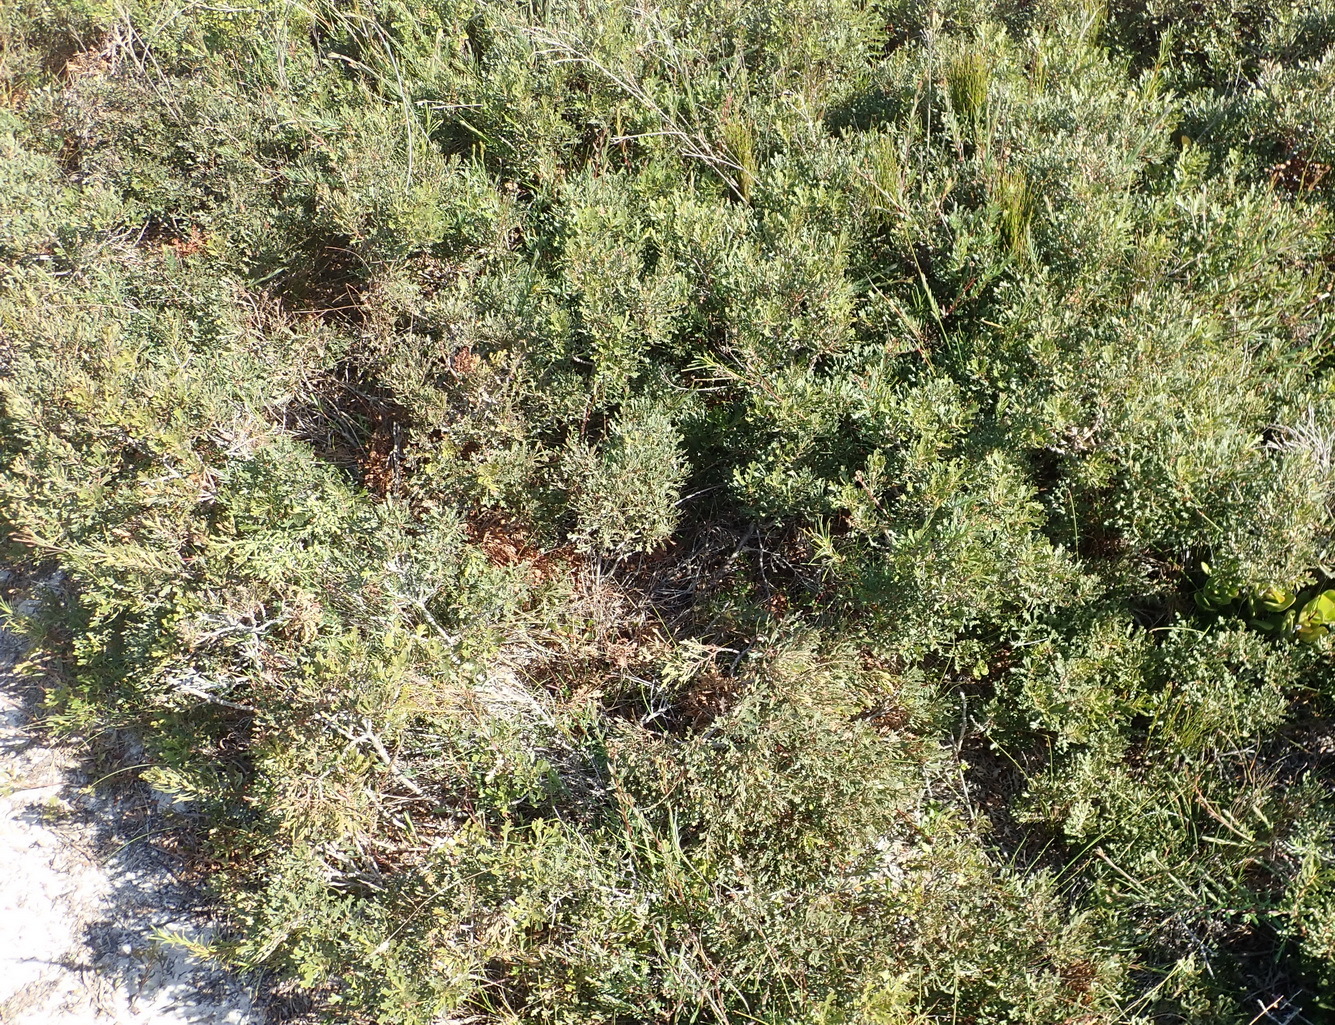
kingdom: Plantae
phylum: Tracheophyta
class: Magnoliopsida
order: Fagales
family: Myricaceae
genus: Morella
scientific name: Morella quercifolia
